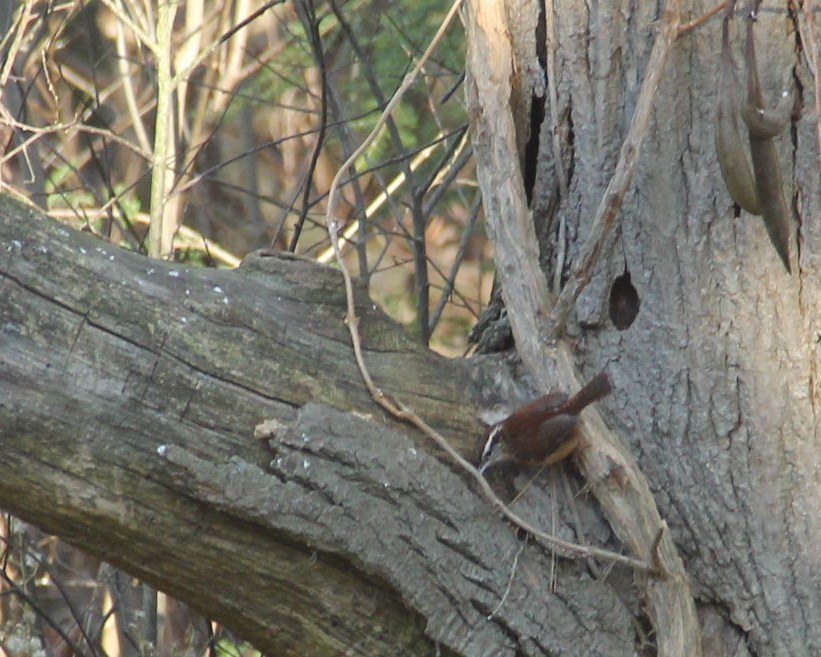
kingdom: Animalia
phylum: Chordata
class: Aves
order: Passeriformes
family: Troglodytidae
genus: Thryothorus
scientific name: Thryothorus ludovicianus
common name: Carolina wren
